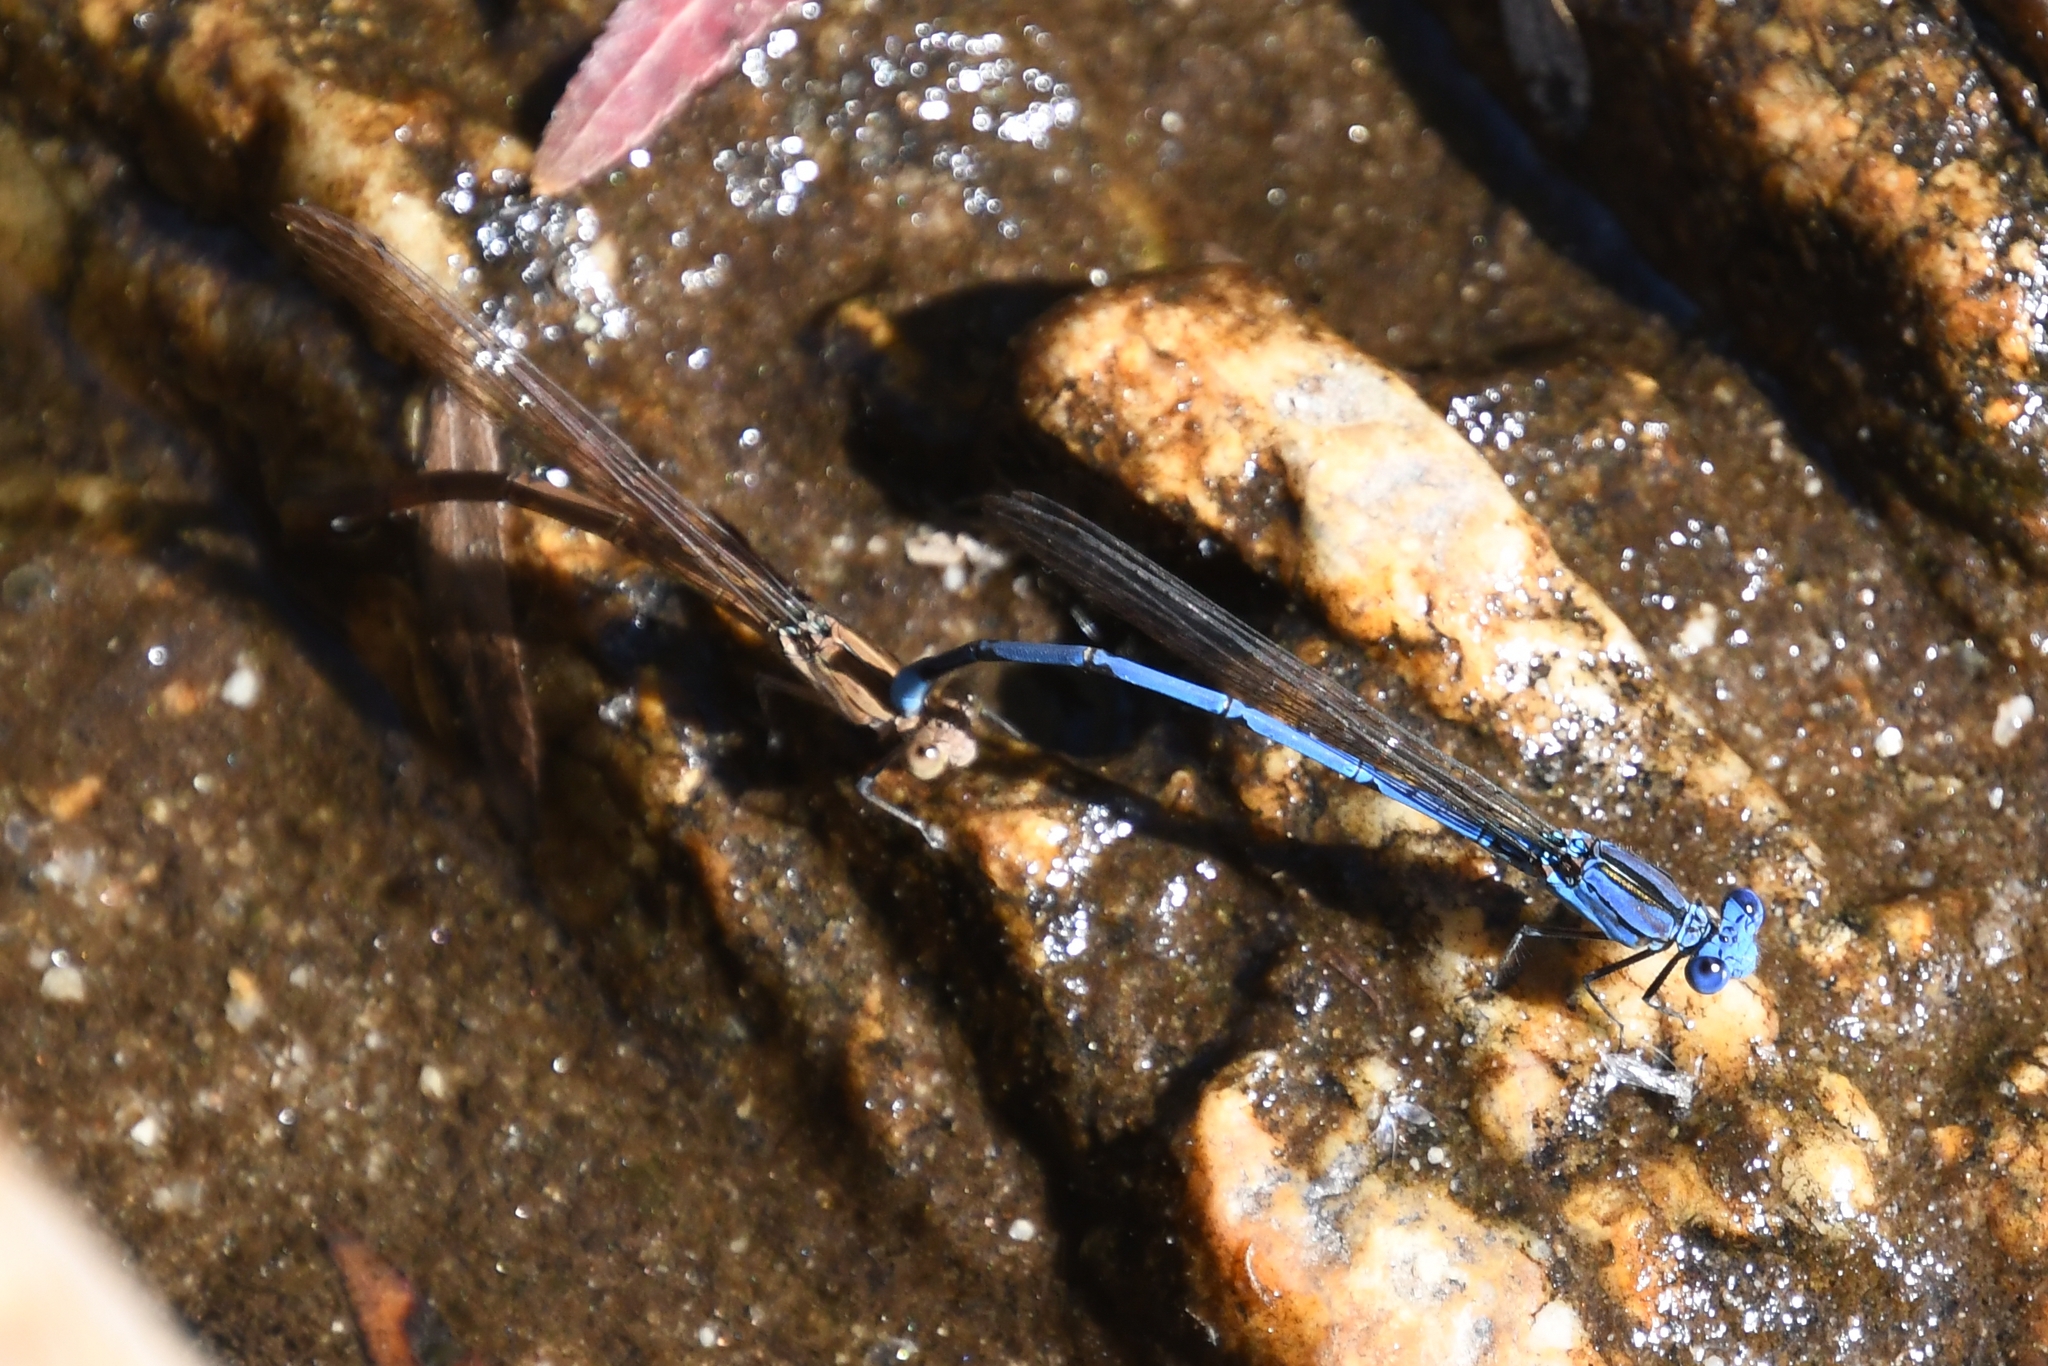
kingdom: Animalia
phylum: Arthropoda
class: Insecta
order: Odonata
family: Coenagrionidae
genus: Argia
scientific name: Argia anceps
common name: Cerulean dancer
